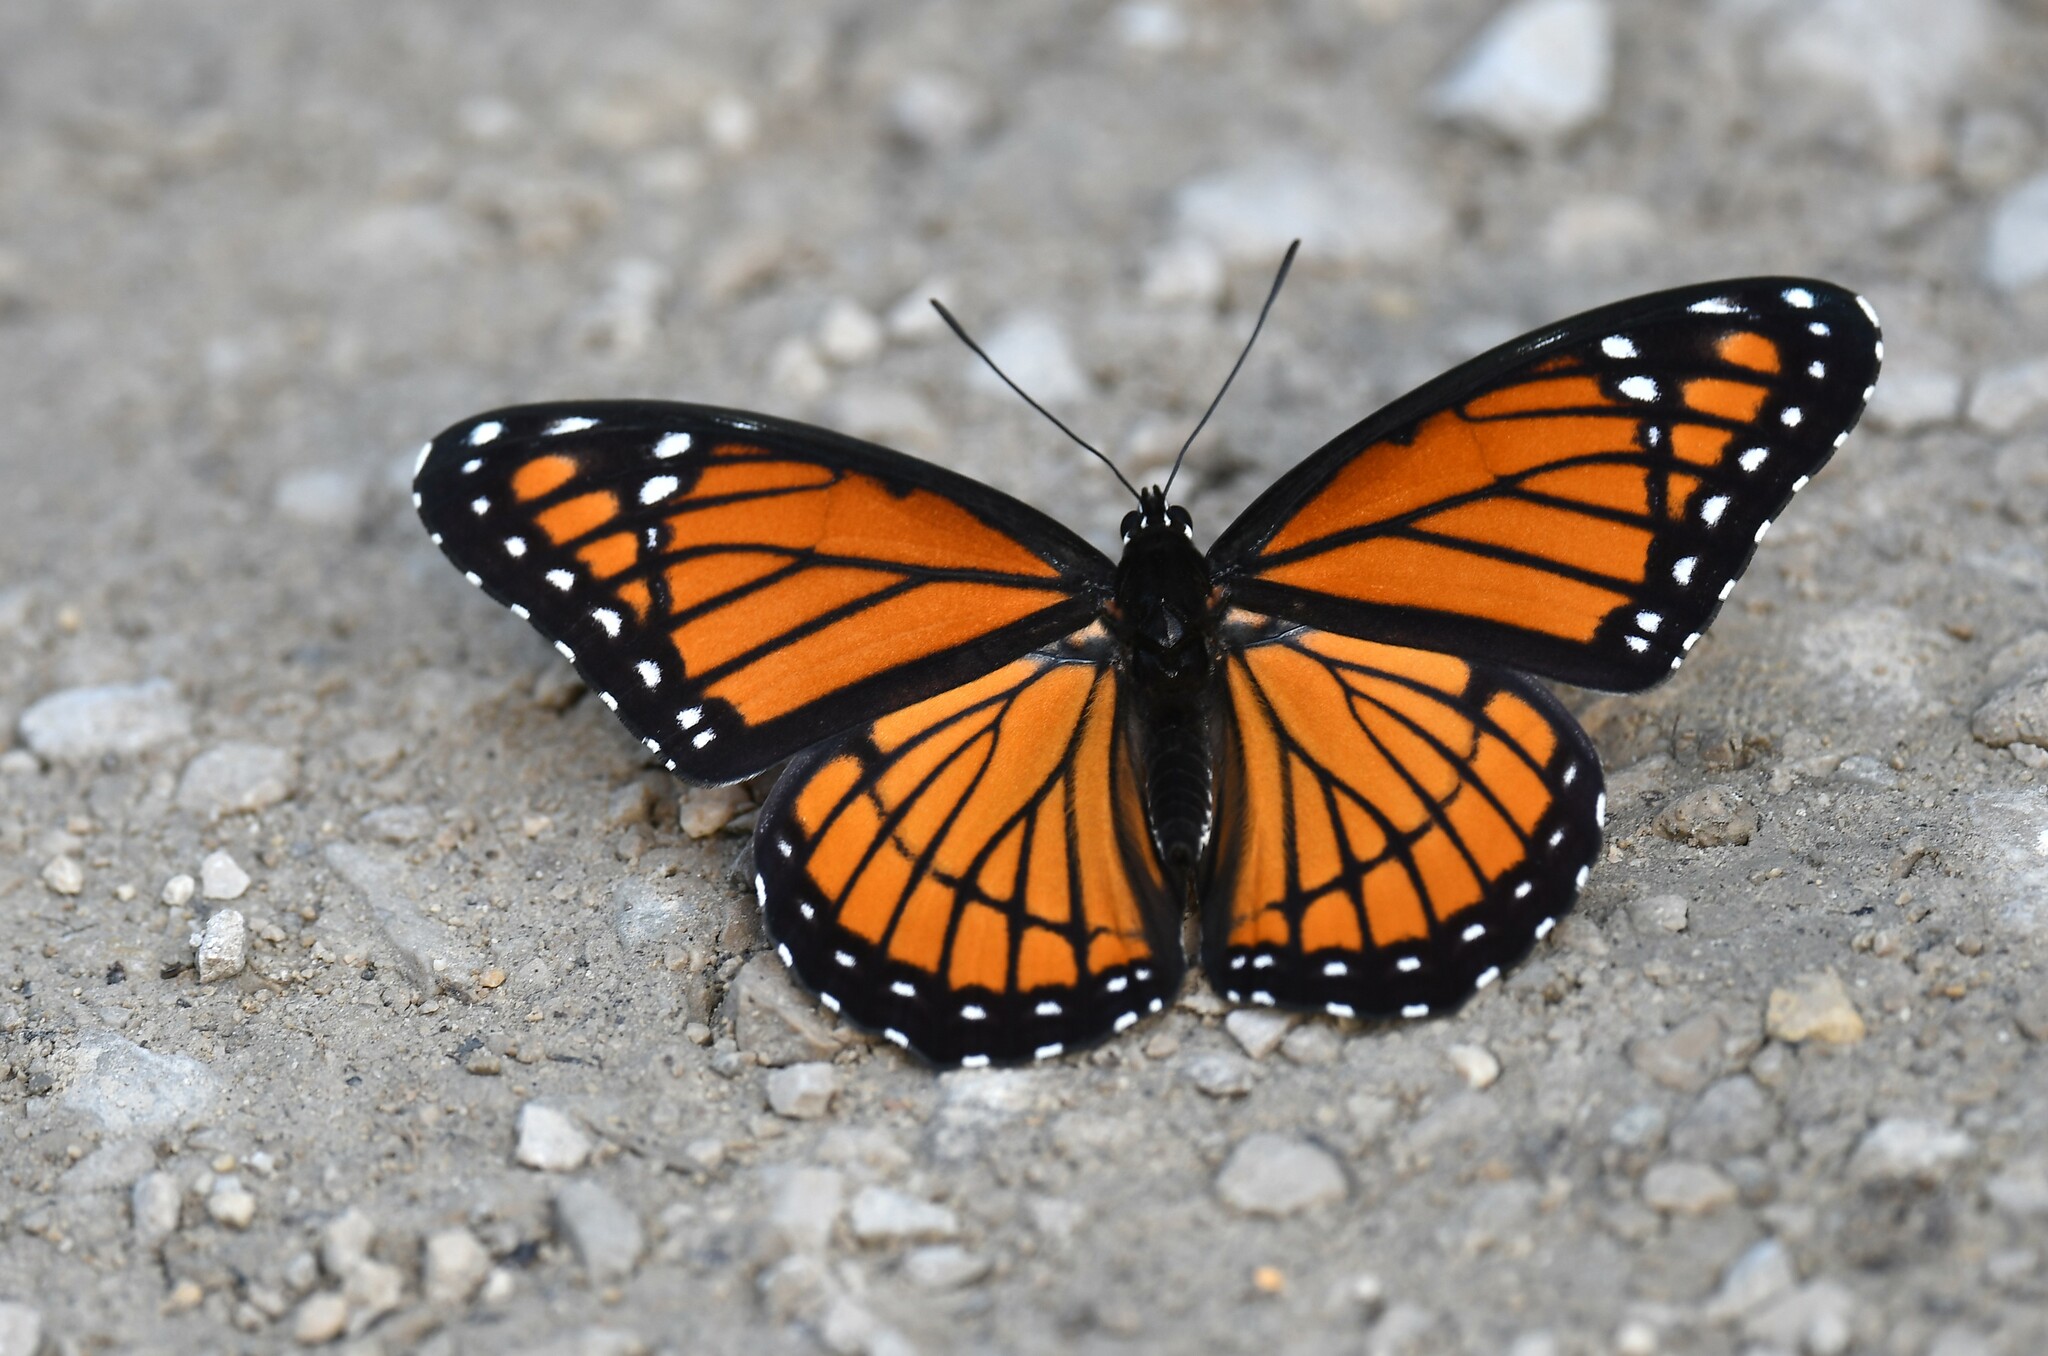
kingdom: Animalia
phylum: Arthropoda
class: Insecta
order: Lepidoptera
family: Nymphalidae
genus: Limenitis
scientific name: Limenitis archippus
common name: Viceroy
